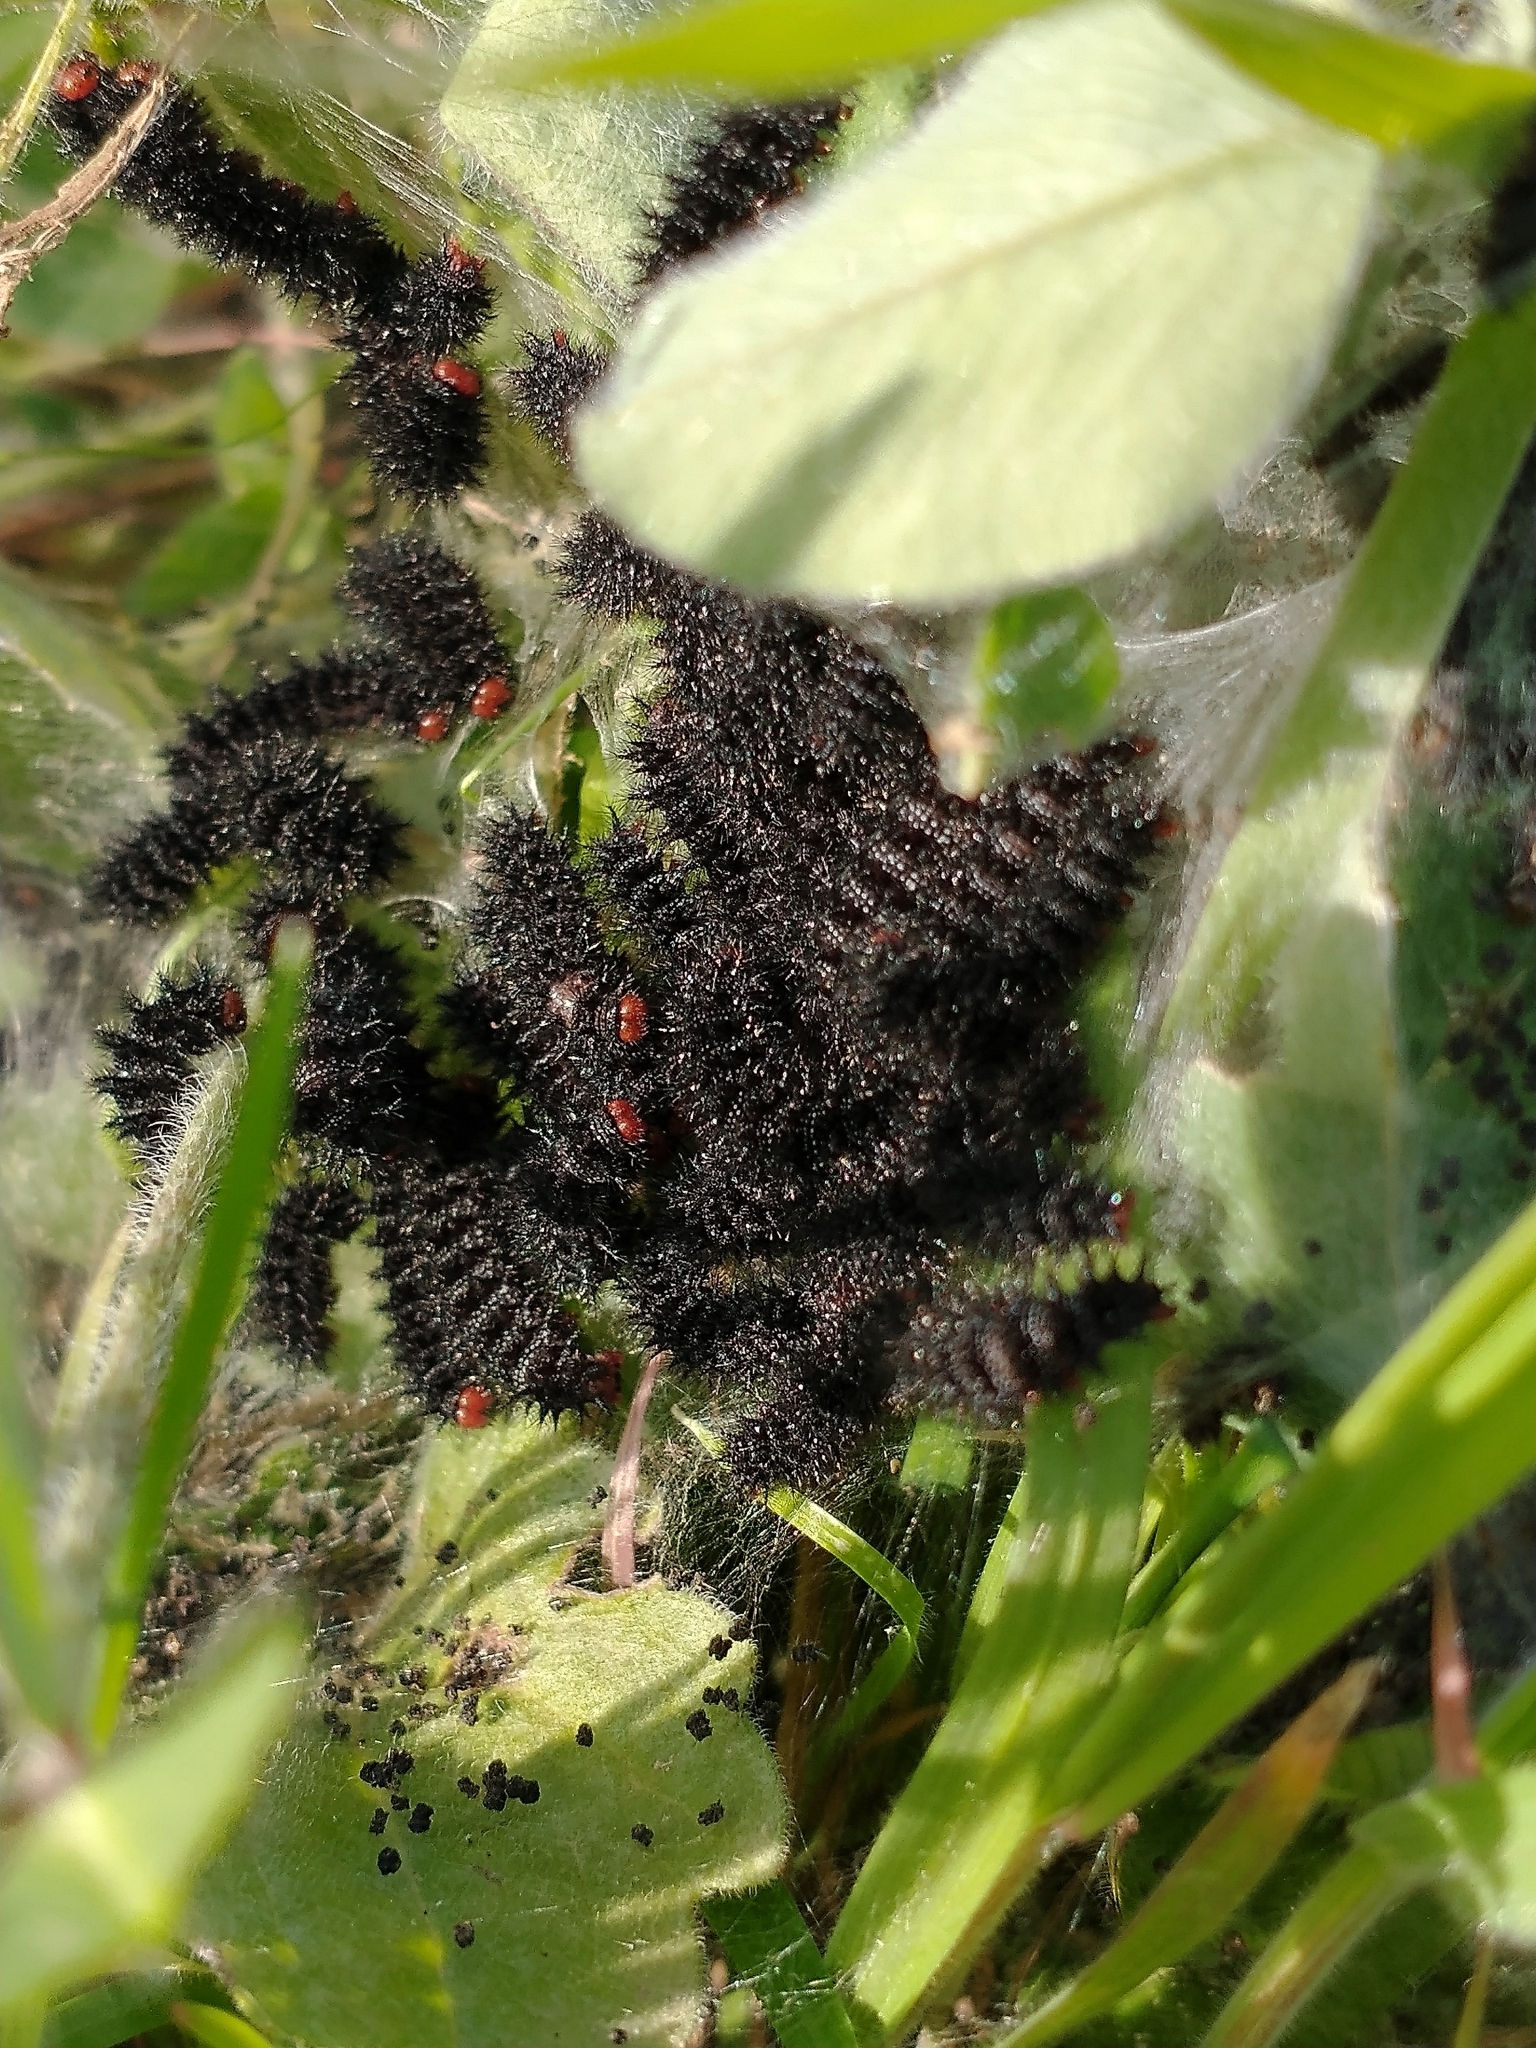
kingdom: Animalia
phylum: Arthropoda
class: Insecta
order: Lepidoptera
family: Nymphalidae
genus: Melitaea
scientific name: Melitaea cinxia
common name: Glanville fritillary
